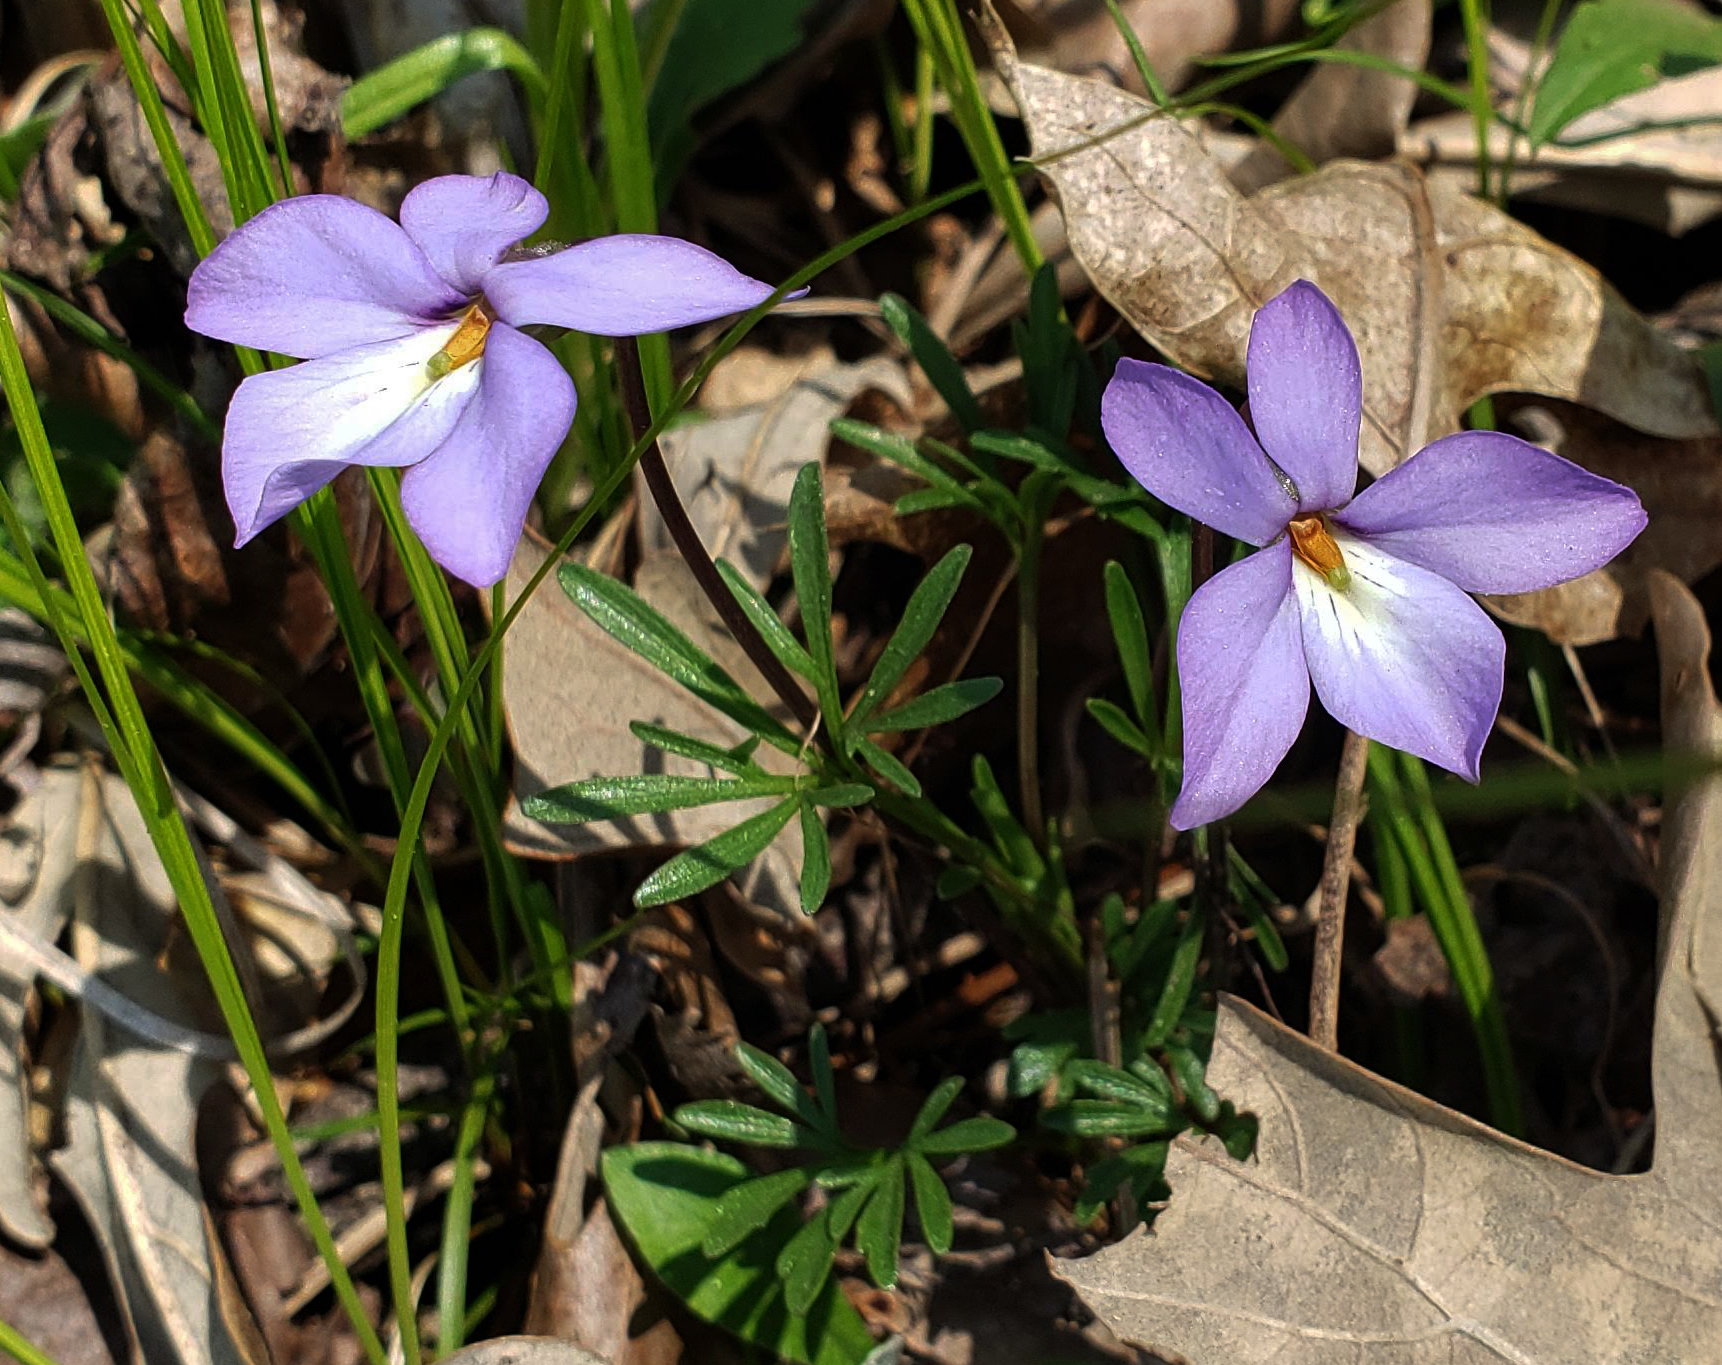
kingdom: Plantae
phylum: Tracheophyta
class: Magnoliopsida
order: Malpighiales
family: Violaceae
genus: Viola
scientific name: Viola pedata
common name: Pansy violet
